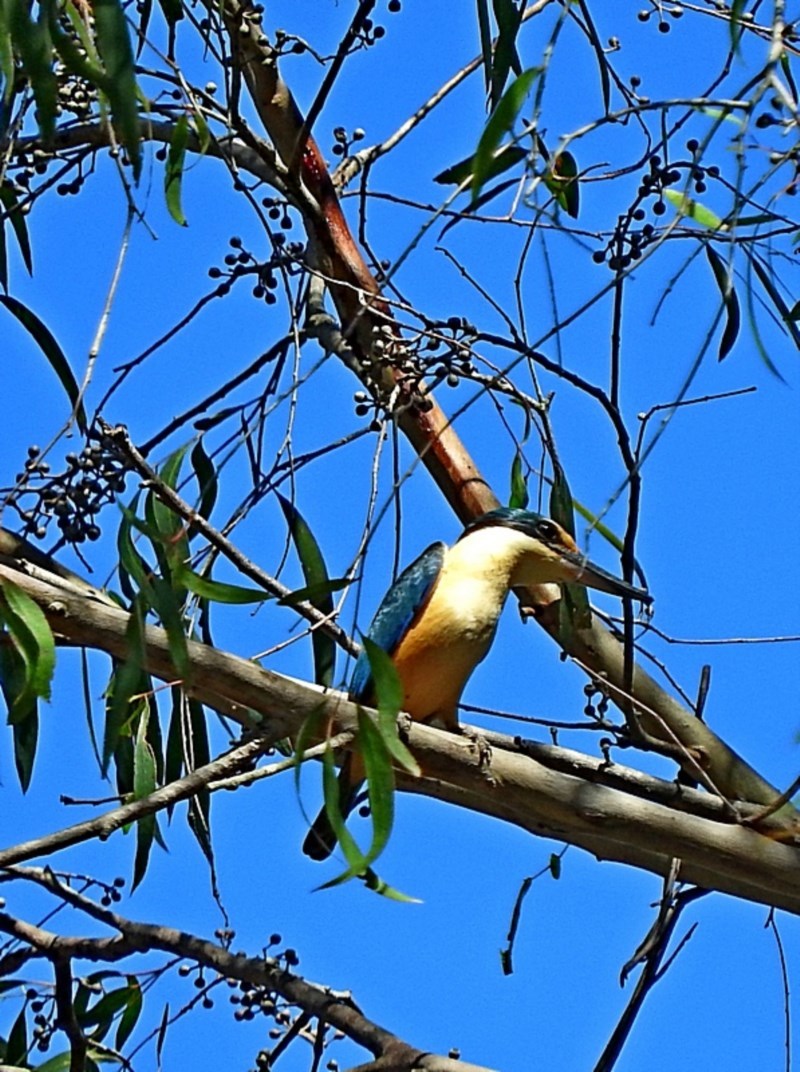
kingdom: Animalia
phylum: Chordata
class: Aves
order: Coraciiformes
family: Alcedinidae
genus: Todiramphus
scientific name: Todiramphus sanctus
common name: Sacred kingfisher
